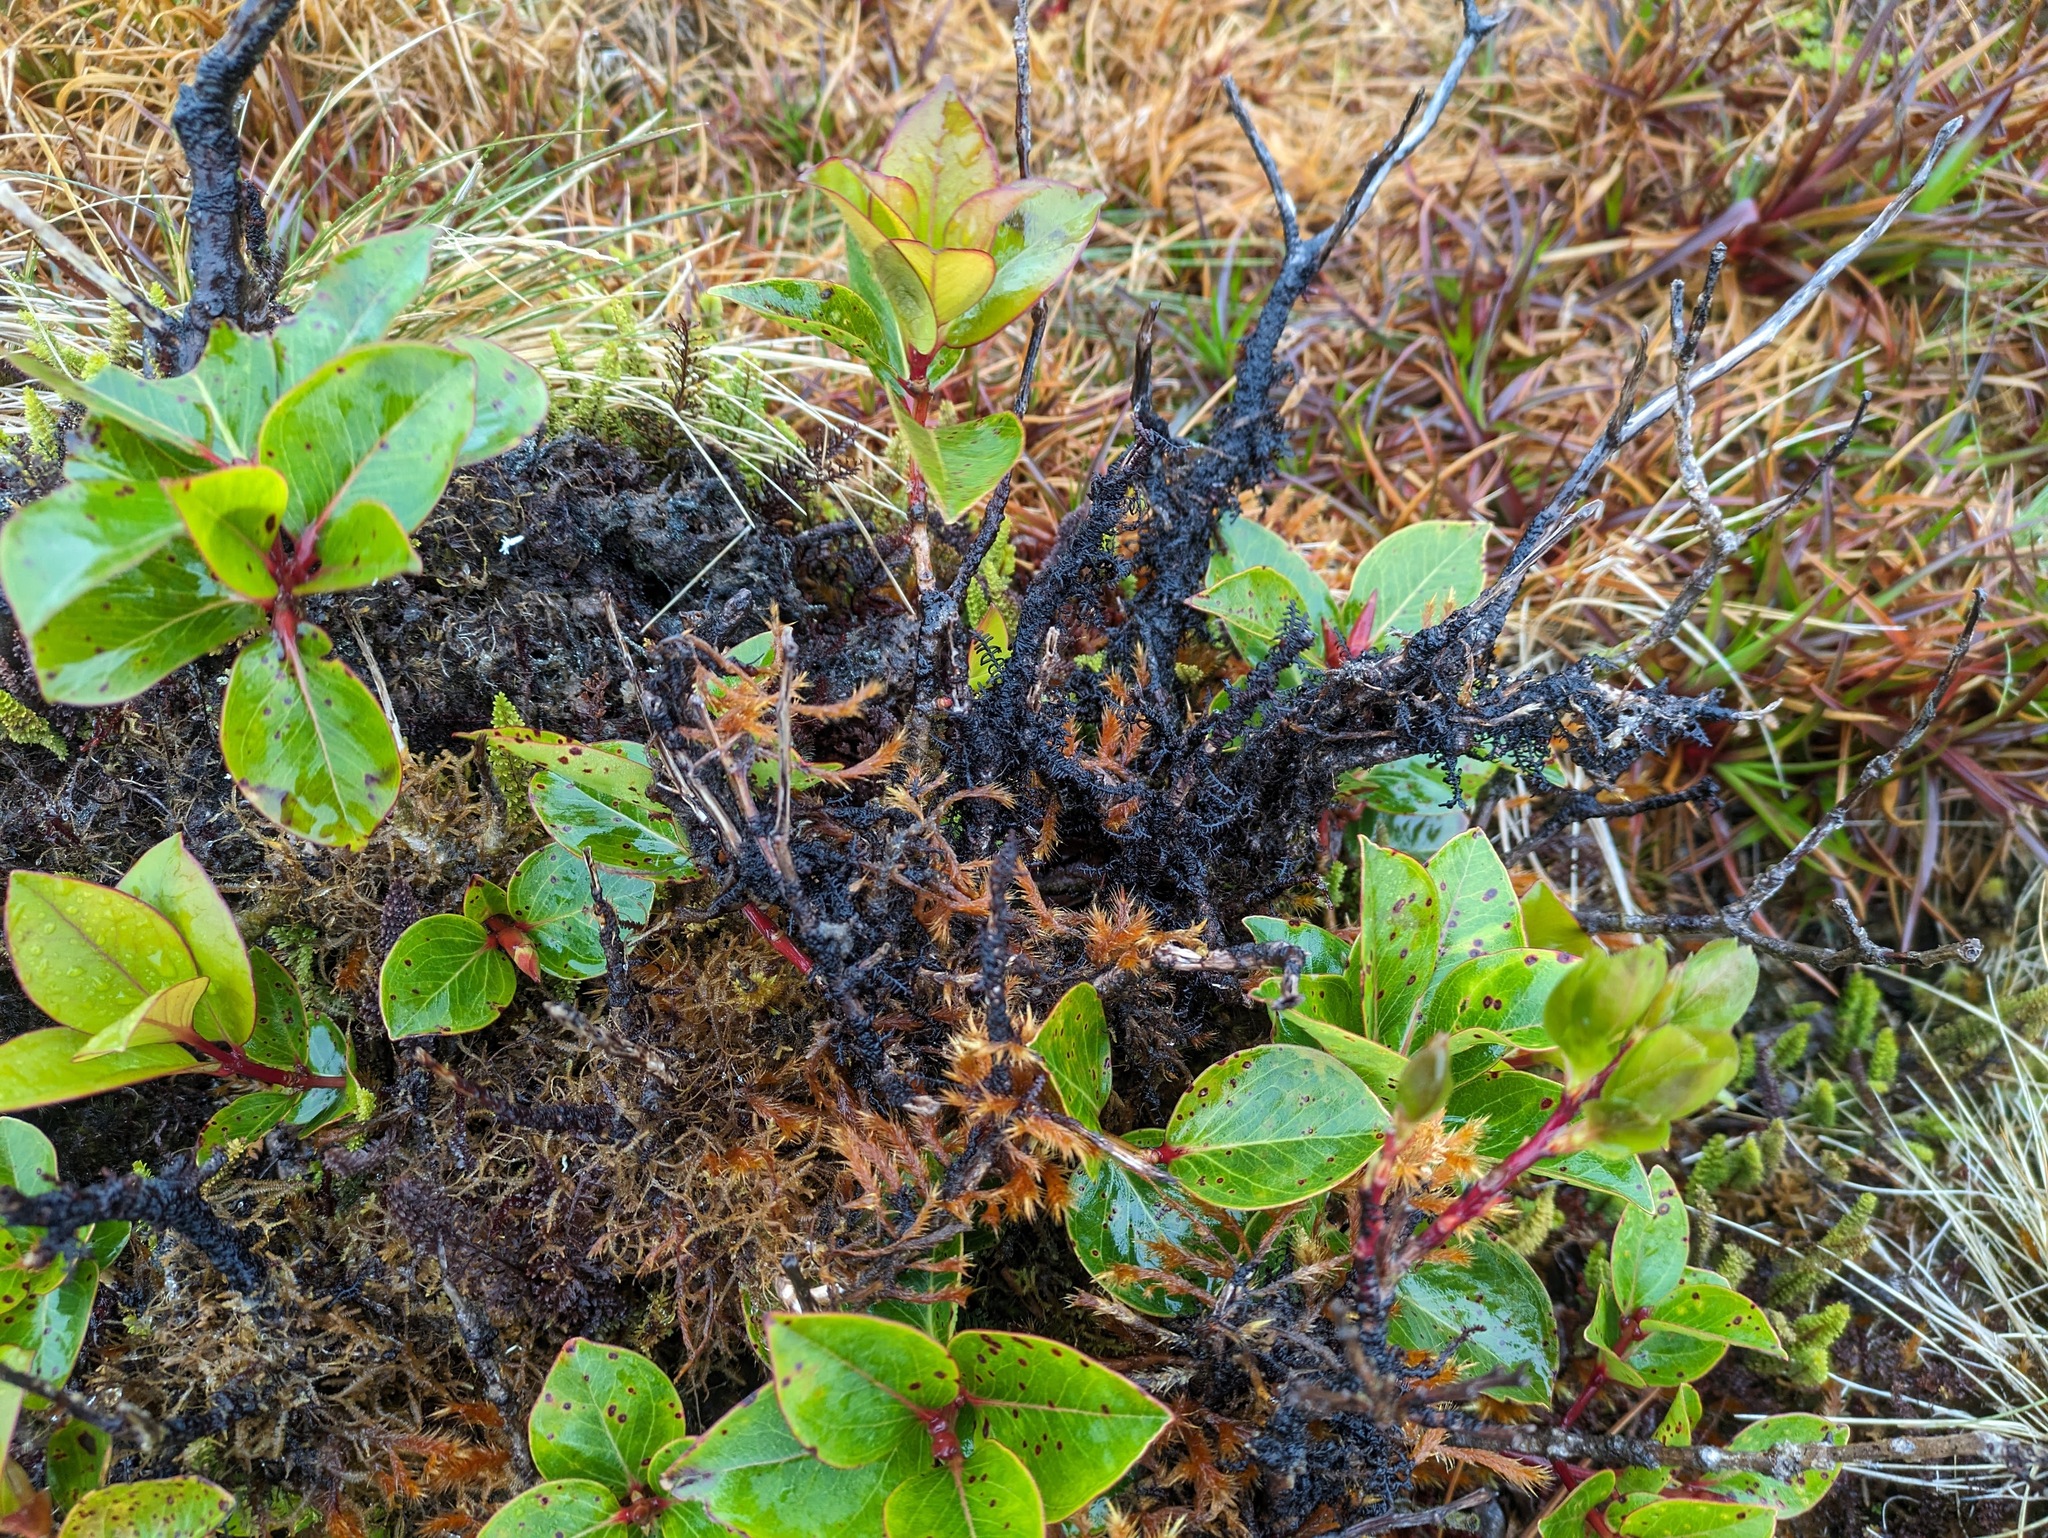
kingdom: Plantae
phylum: Tracheophyta
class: Magnoliopsida
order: Myrtales
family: Myrtaceae
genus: Metrosideros
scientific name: Metrosideros polymorpha
